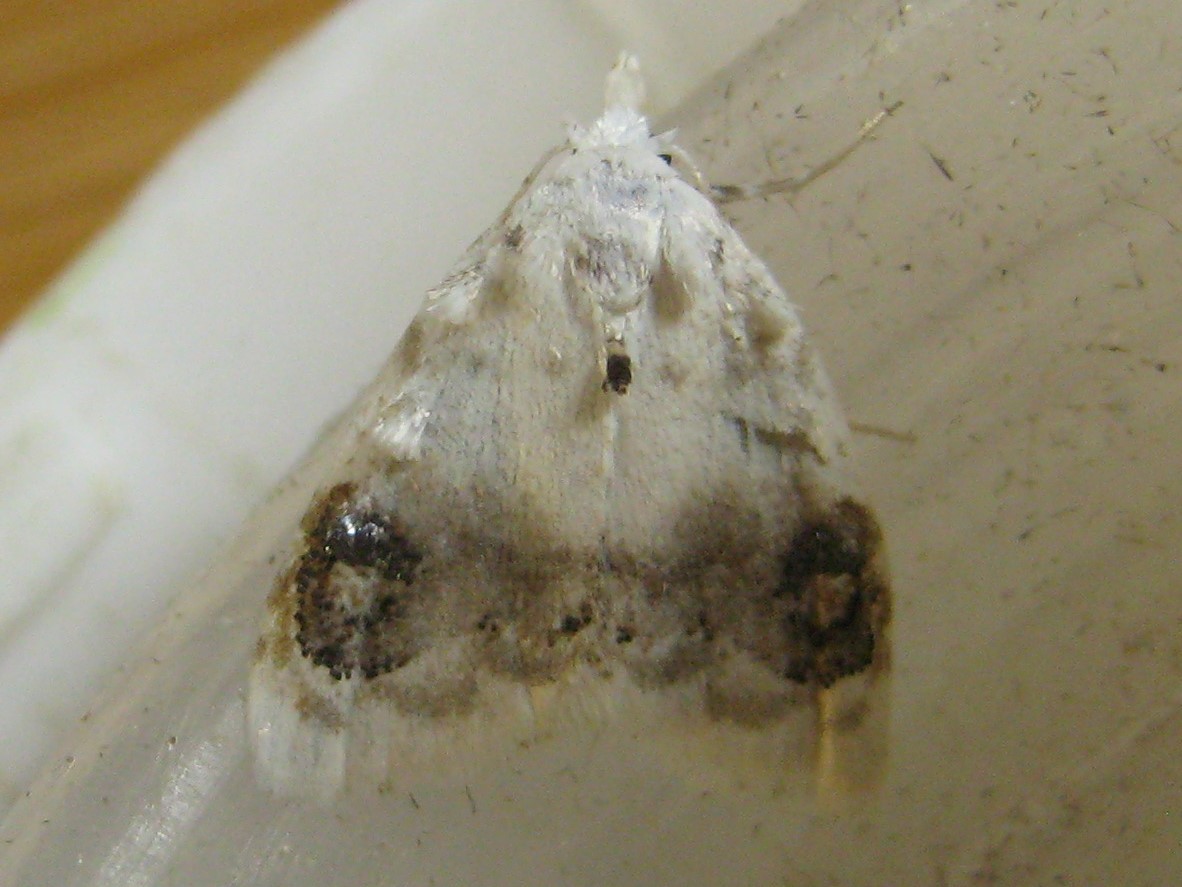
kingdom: Animalia
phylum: Arthropoda
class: Insecta
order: Lepidoptera
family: Nolidae
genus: Nola
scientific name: Nola cilicoides
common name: Blurry-patched nola moth
